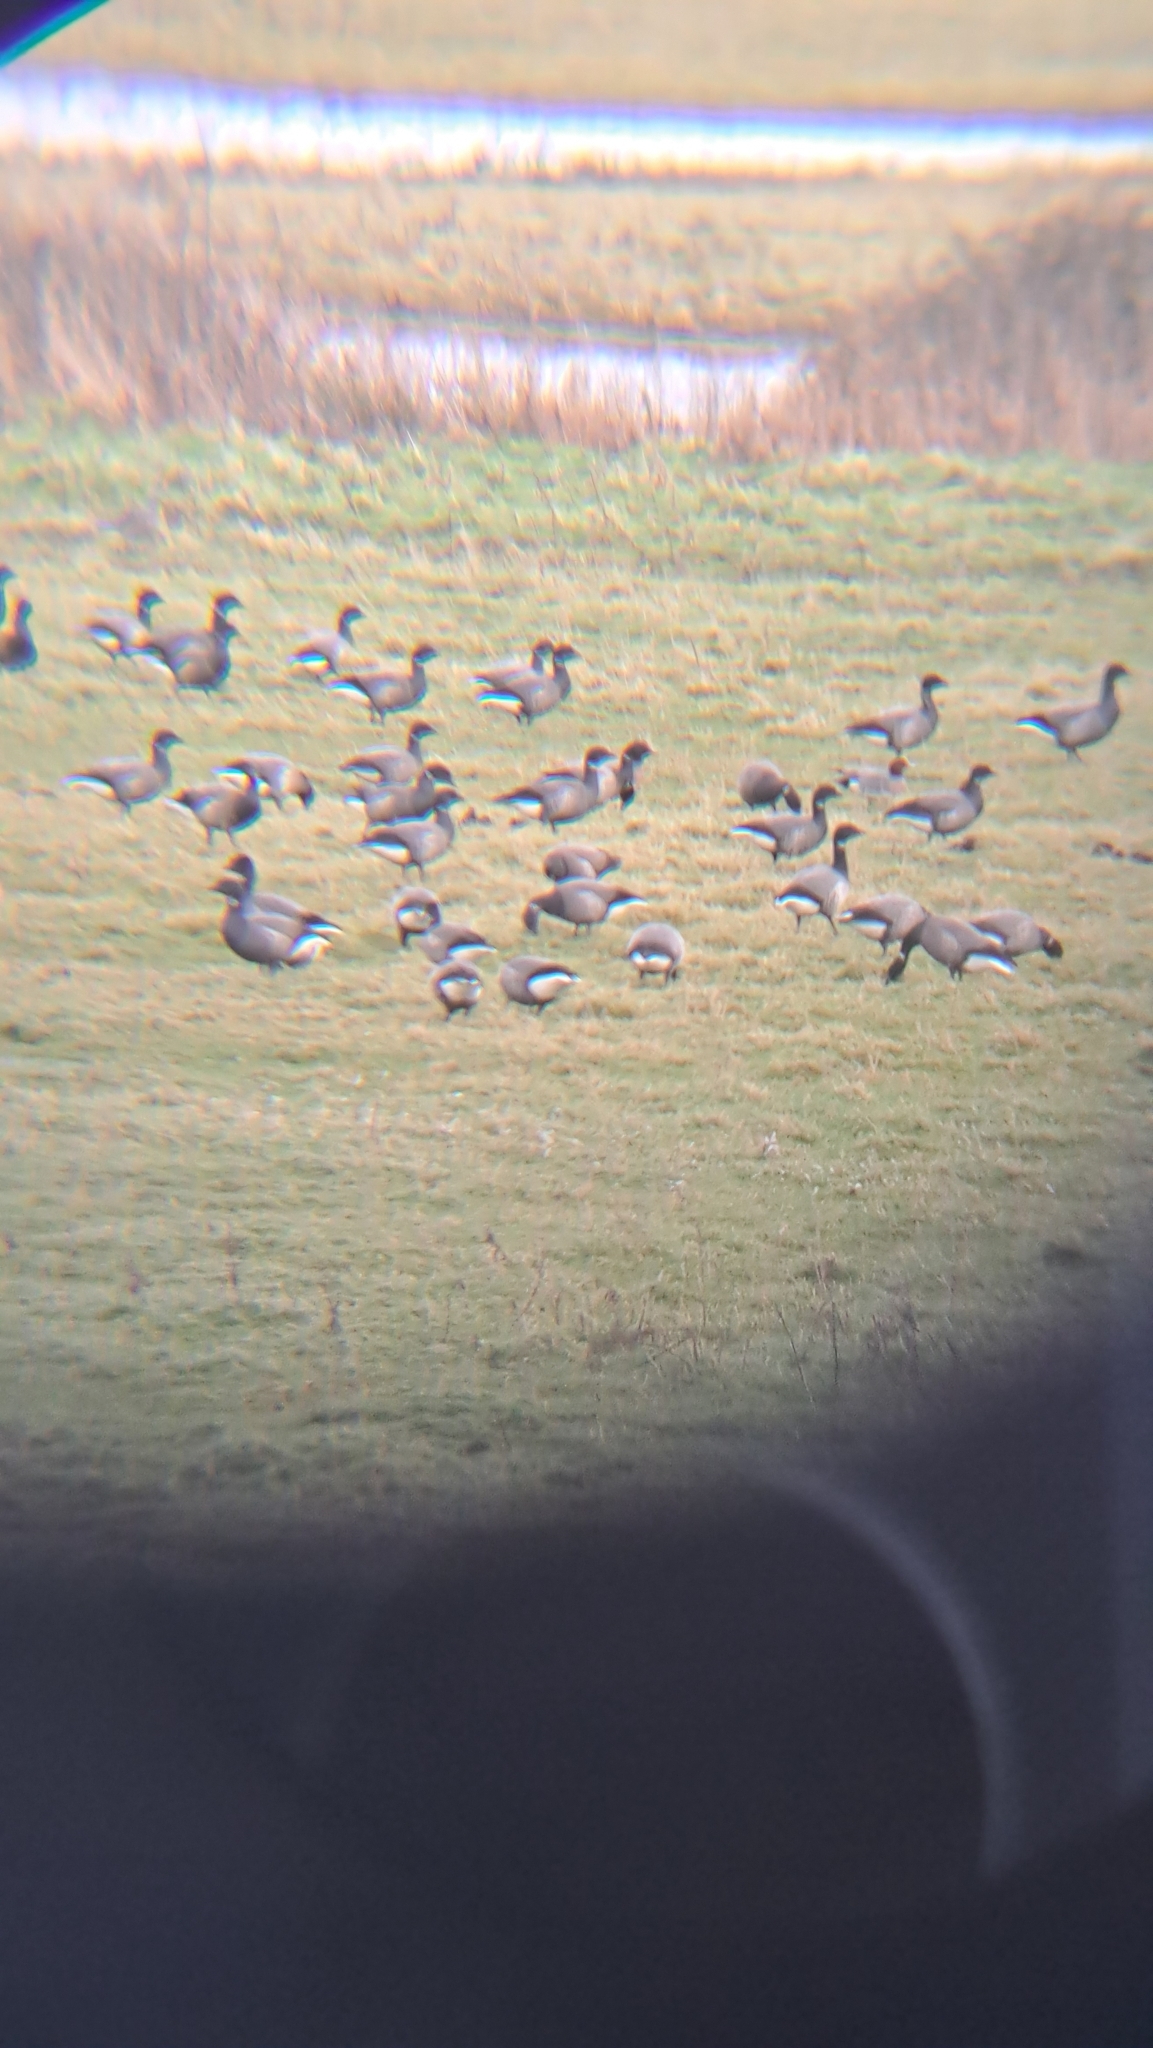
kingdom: Animalia
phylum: Chordata
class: Aves
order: Anseriformes
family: Anatidae
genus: Branta
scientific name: Branta bernicla
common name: Brant goose
